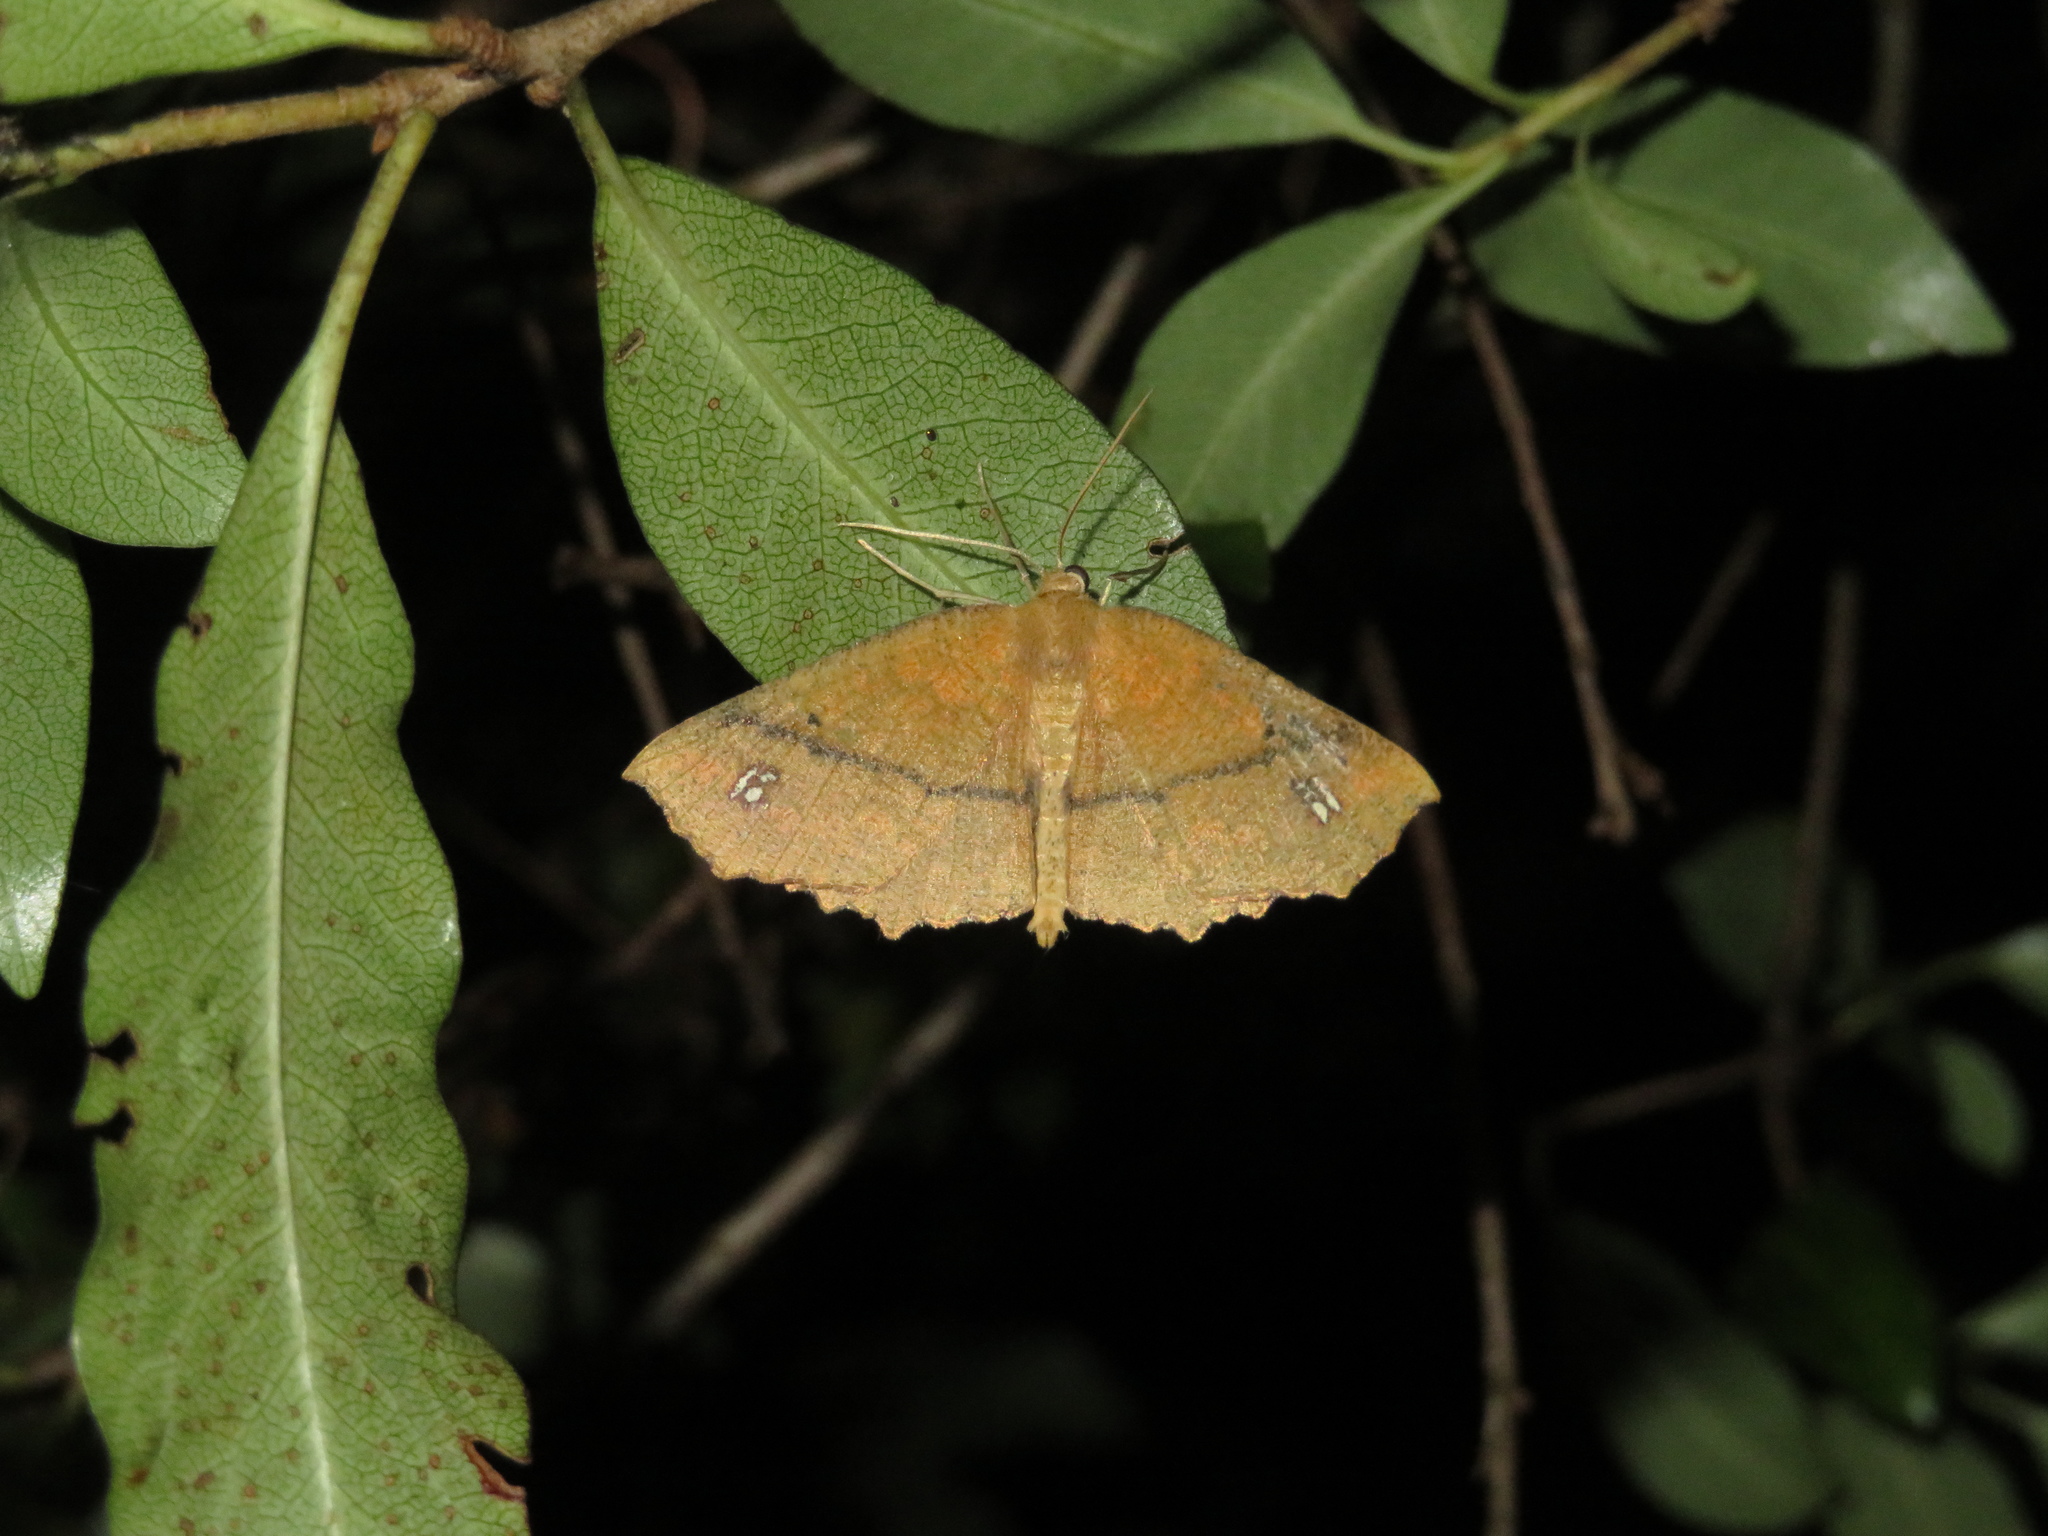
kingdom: Animalia
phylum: Arthropoda
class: Insecta
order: Lepidoptera
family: Geometridae
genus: Xyridacma
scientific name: Xyridacma ustaria
